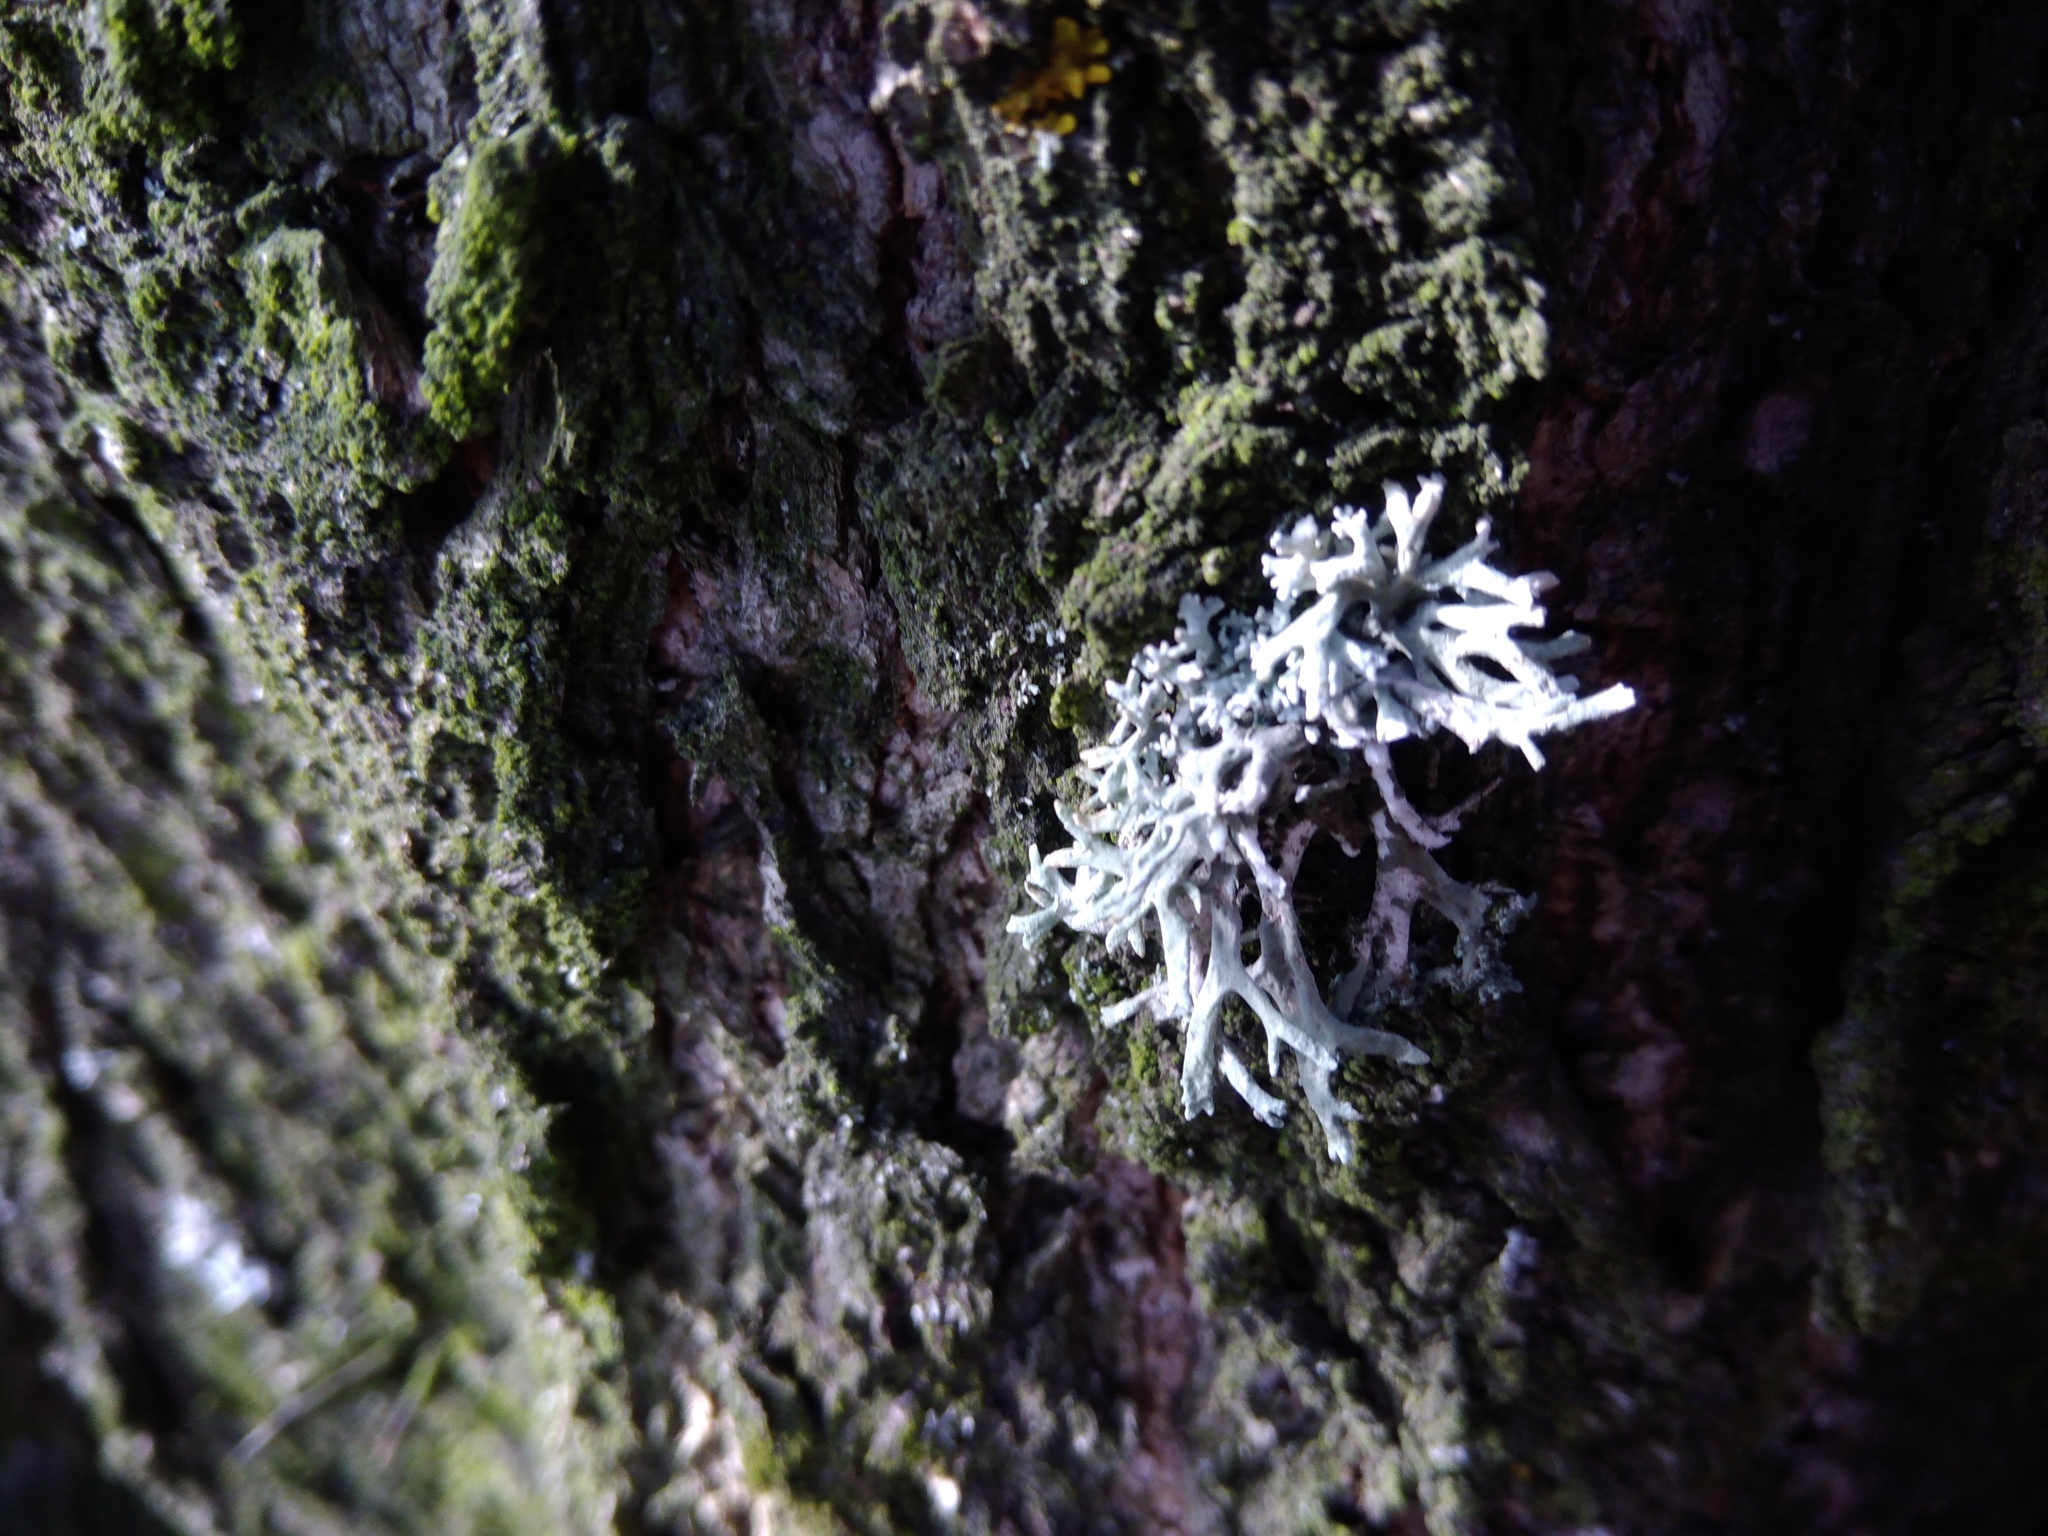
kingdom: Fungi
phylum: Ascomycota
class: Lecanoromycetes
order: Lecanorales
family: Parmeliaceae
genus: Evernia
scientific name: Evernia prunastri
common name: Oak moss
